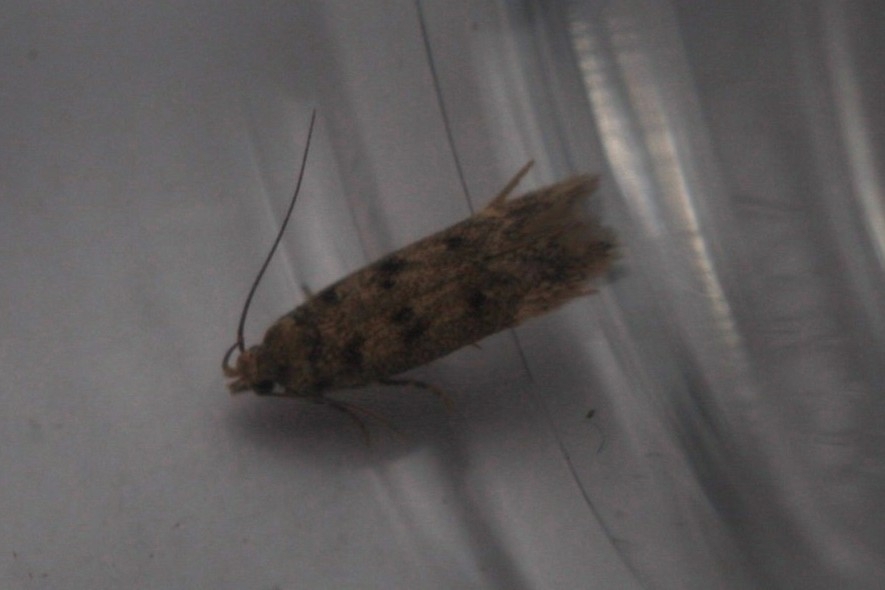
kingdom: Animalia
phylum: Arthropoda
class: Insecta
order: Lepidoptera
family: Gelechiidae
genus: Bryotropha
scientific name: Bryotropha domestica
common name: House groundling
